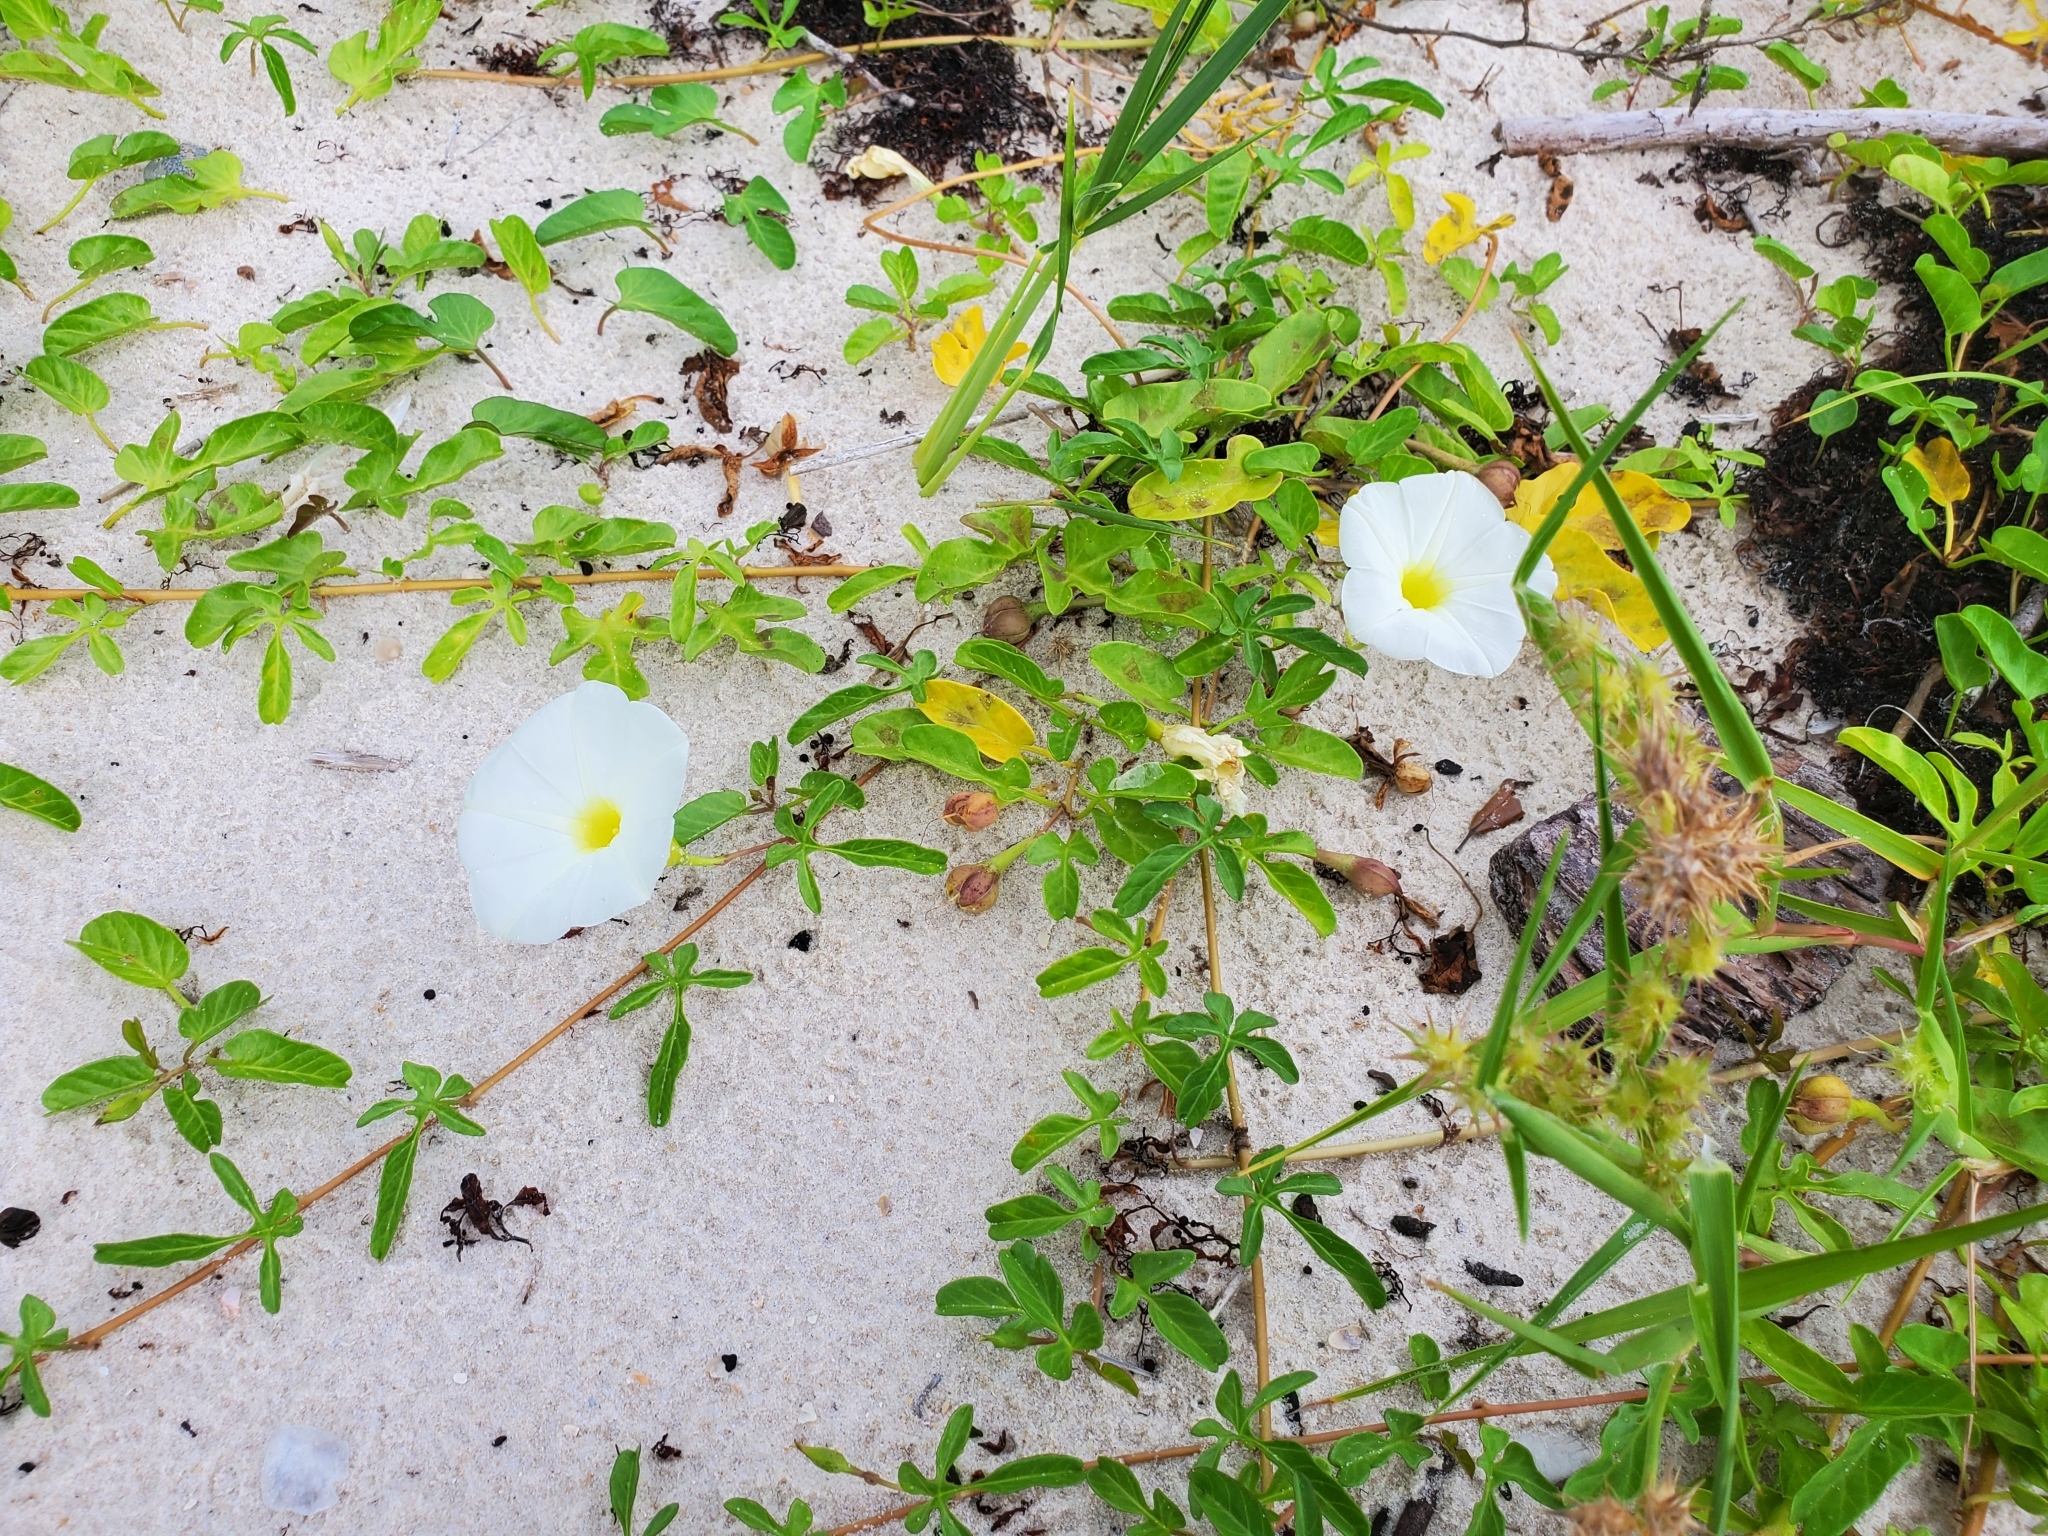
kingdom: Plantae
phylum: Tracheophyta
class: Magnoliopsida
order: Solanales
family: Convolvulaceae
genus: Ipomoea
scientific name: Ipomoea imperati
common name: Fiddle-leaf morning-glory
